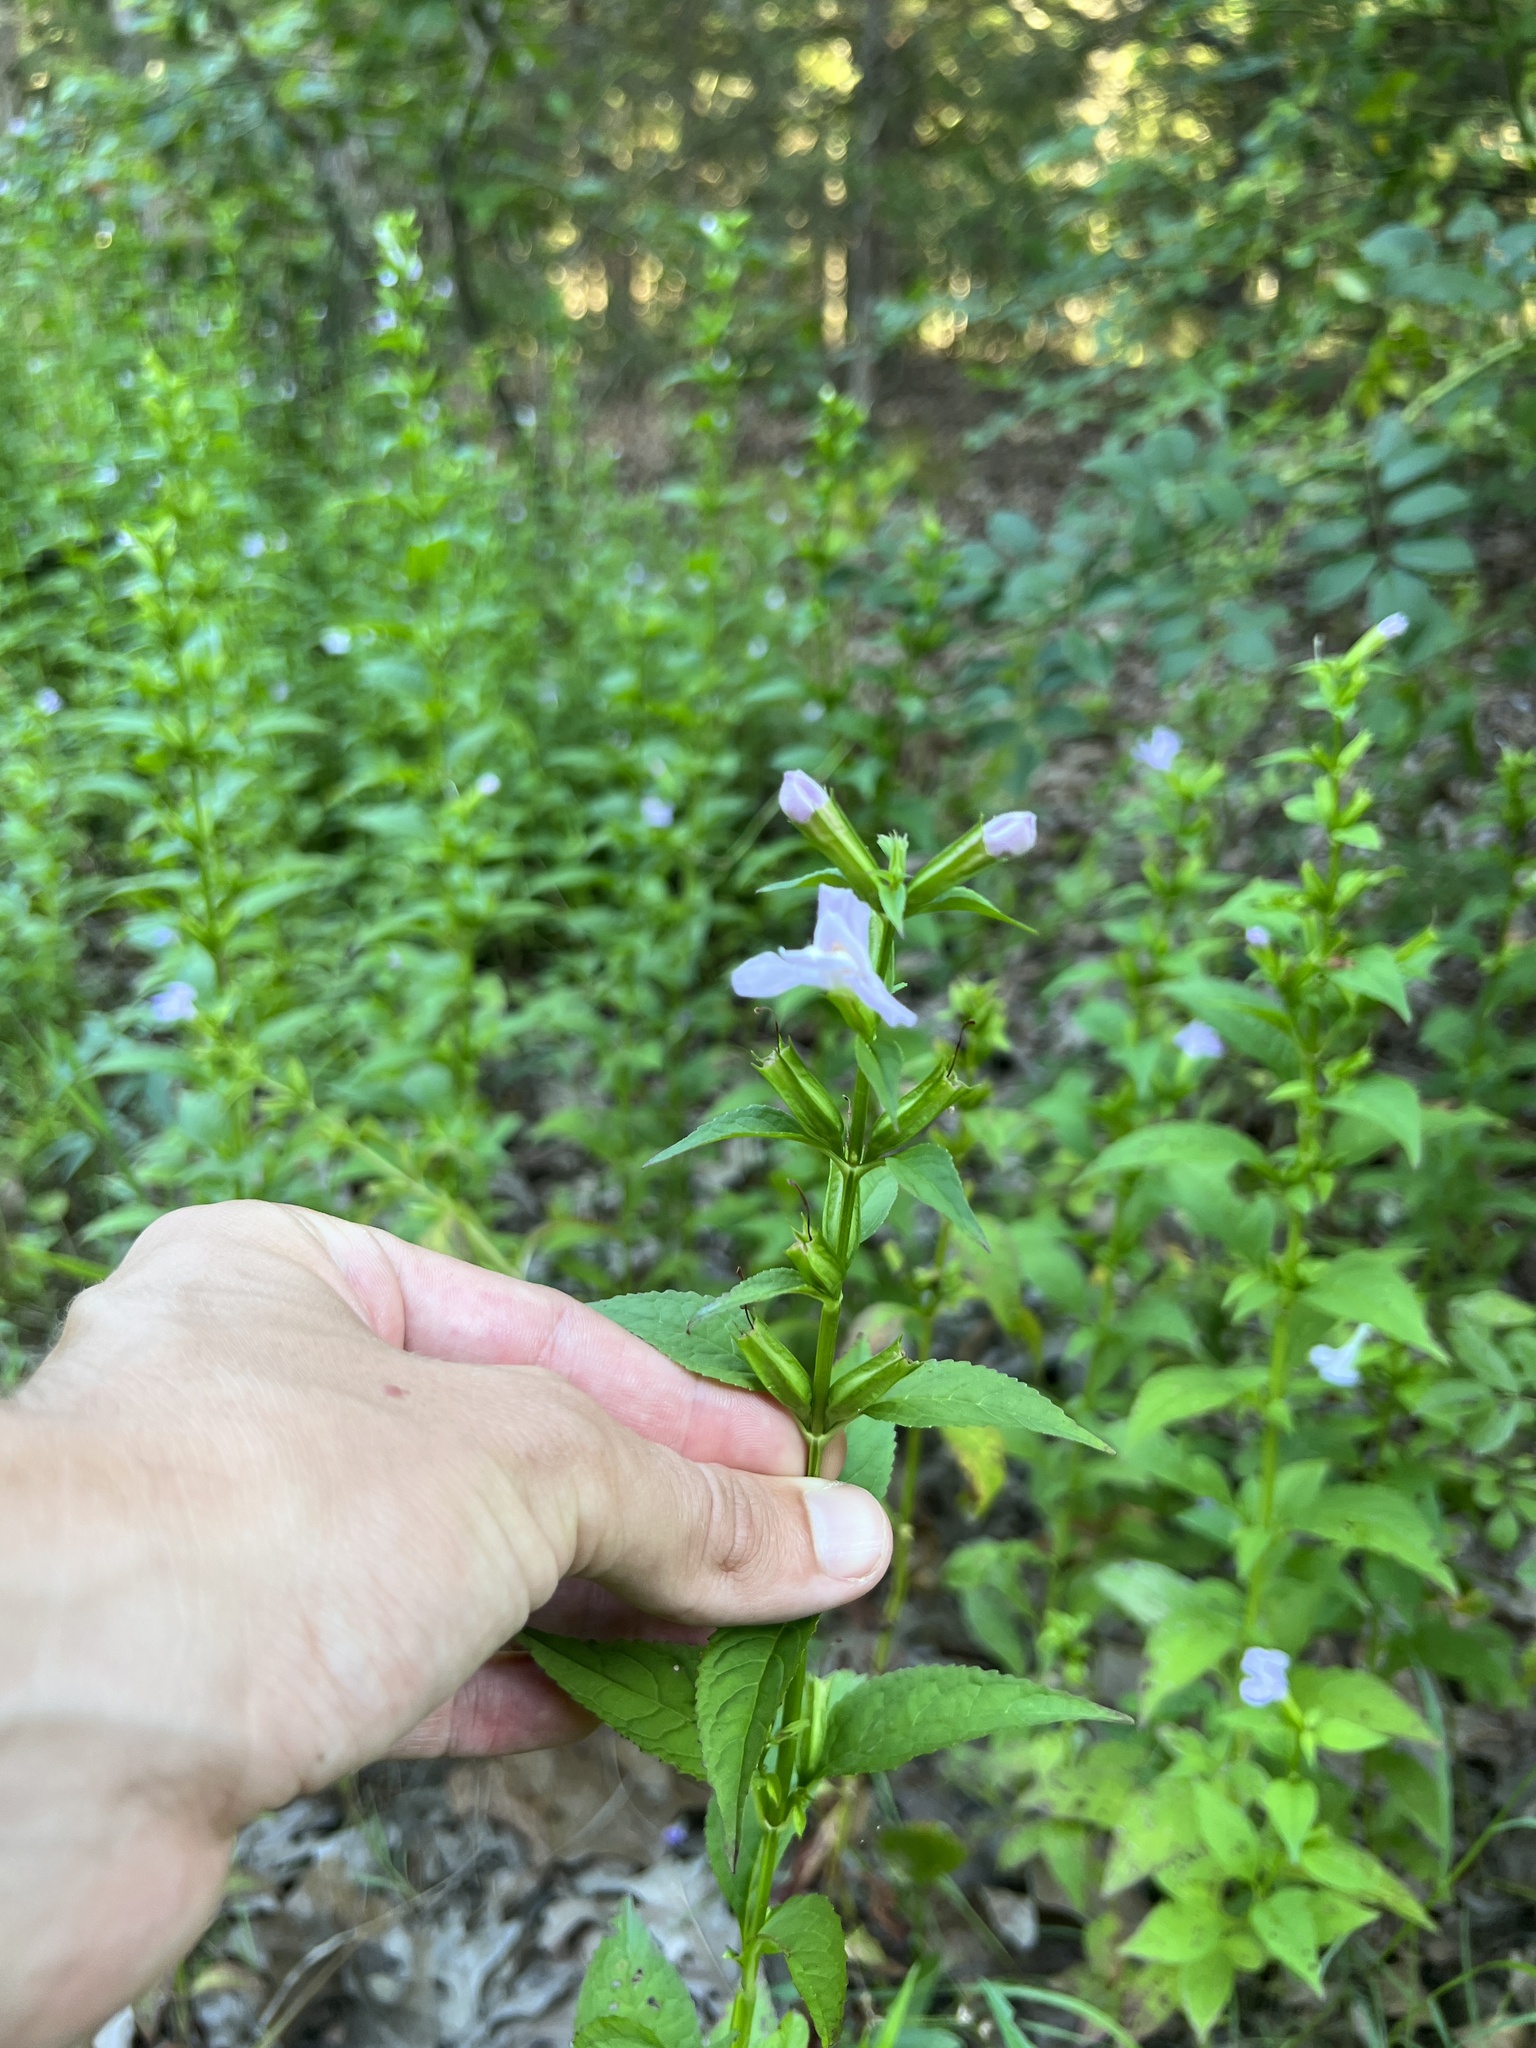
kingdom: Plantae
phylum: Tracheophyta
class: Magnoliopsida
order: Lamiales
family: Phrymaceae
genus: Mimulus
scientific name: Mimulus alatus
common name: Sharp-wing monkey-flower
